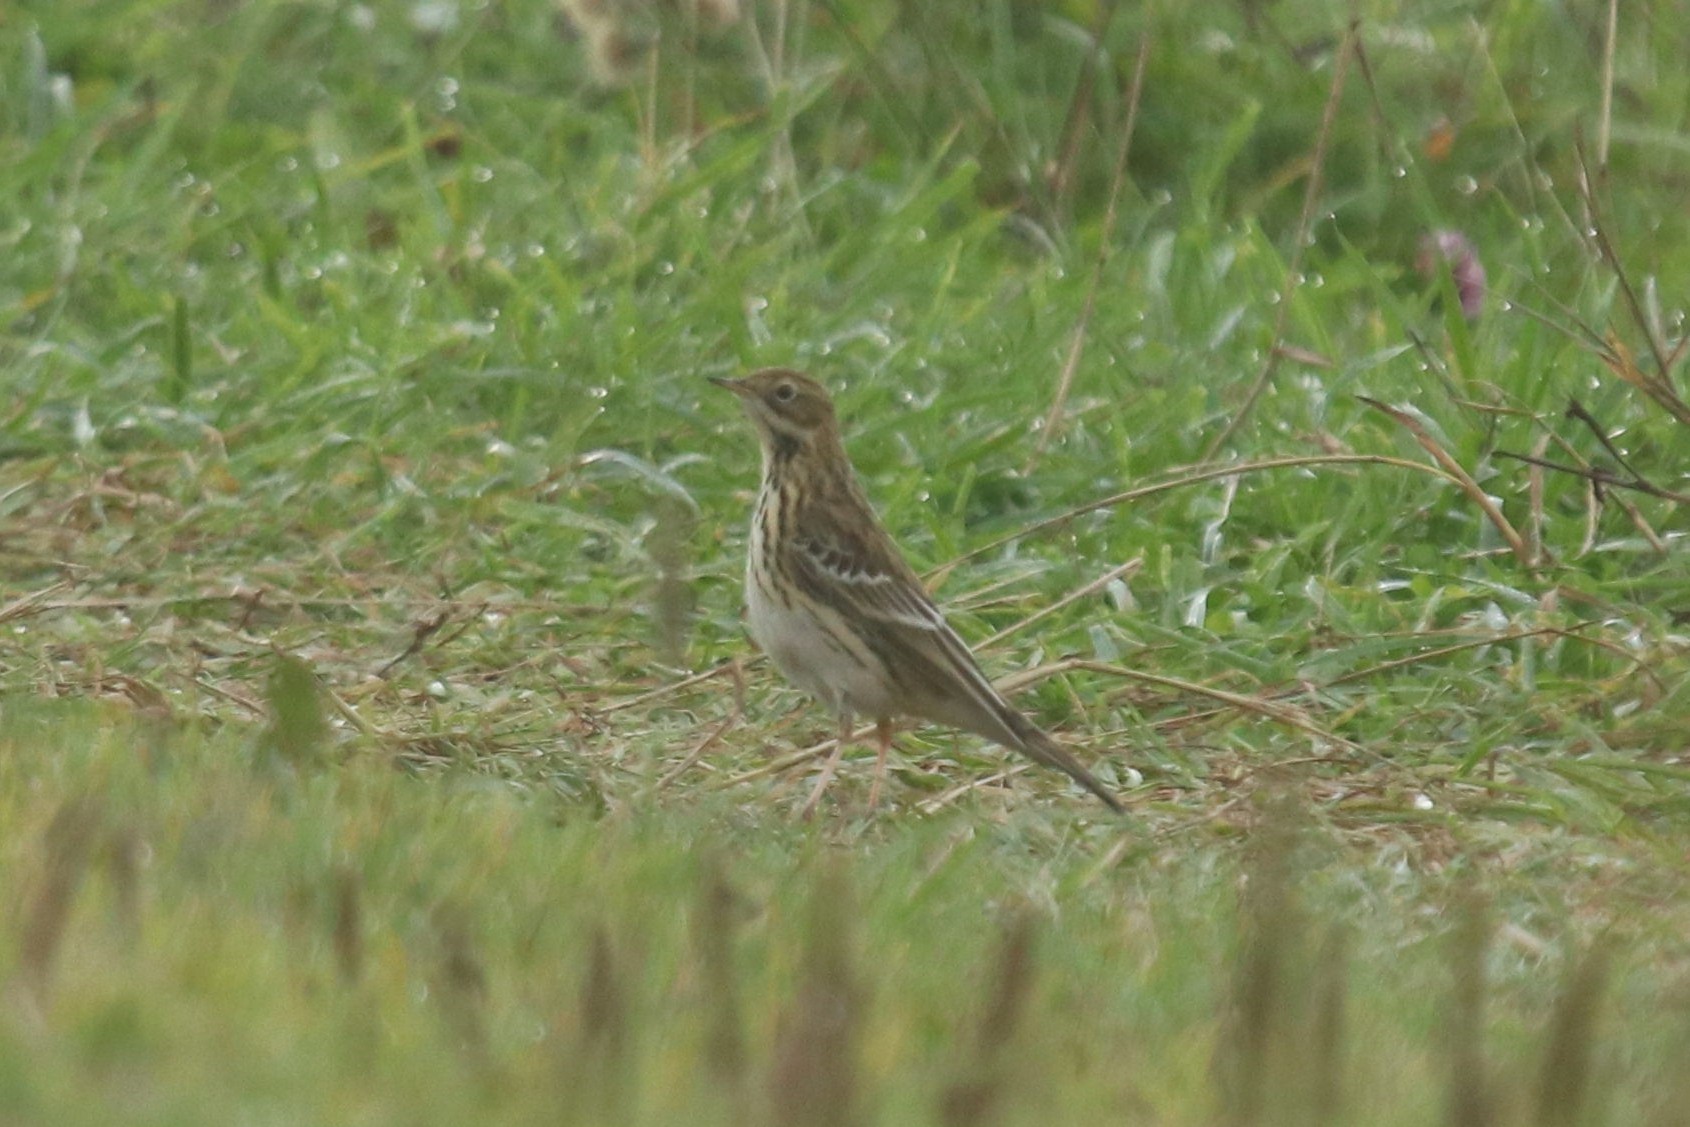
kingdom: Animalia
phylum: Chordata
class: Aves
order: Passeriformes
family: Motacillidae
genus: Anthus
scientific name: Anthus trivialis
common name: Tree pipit
